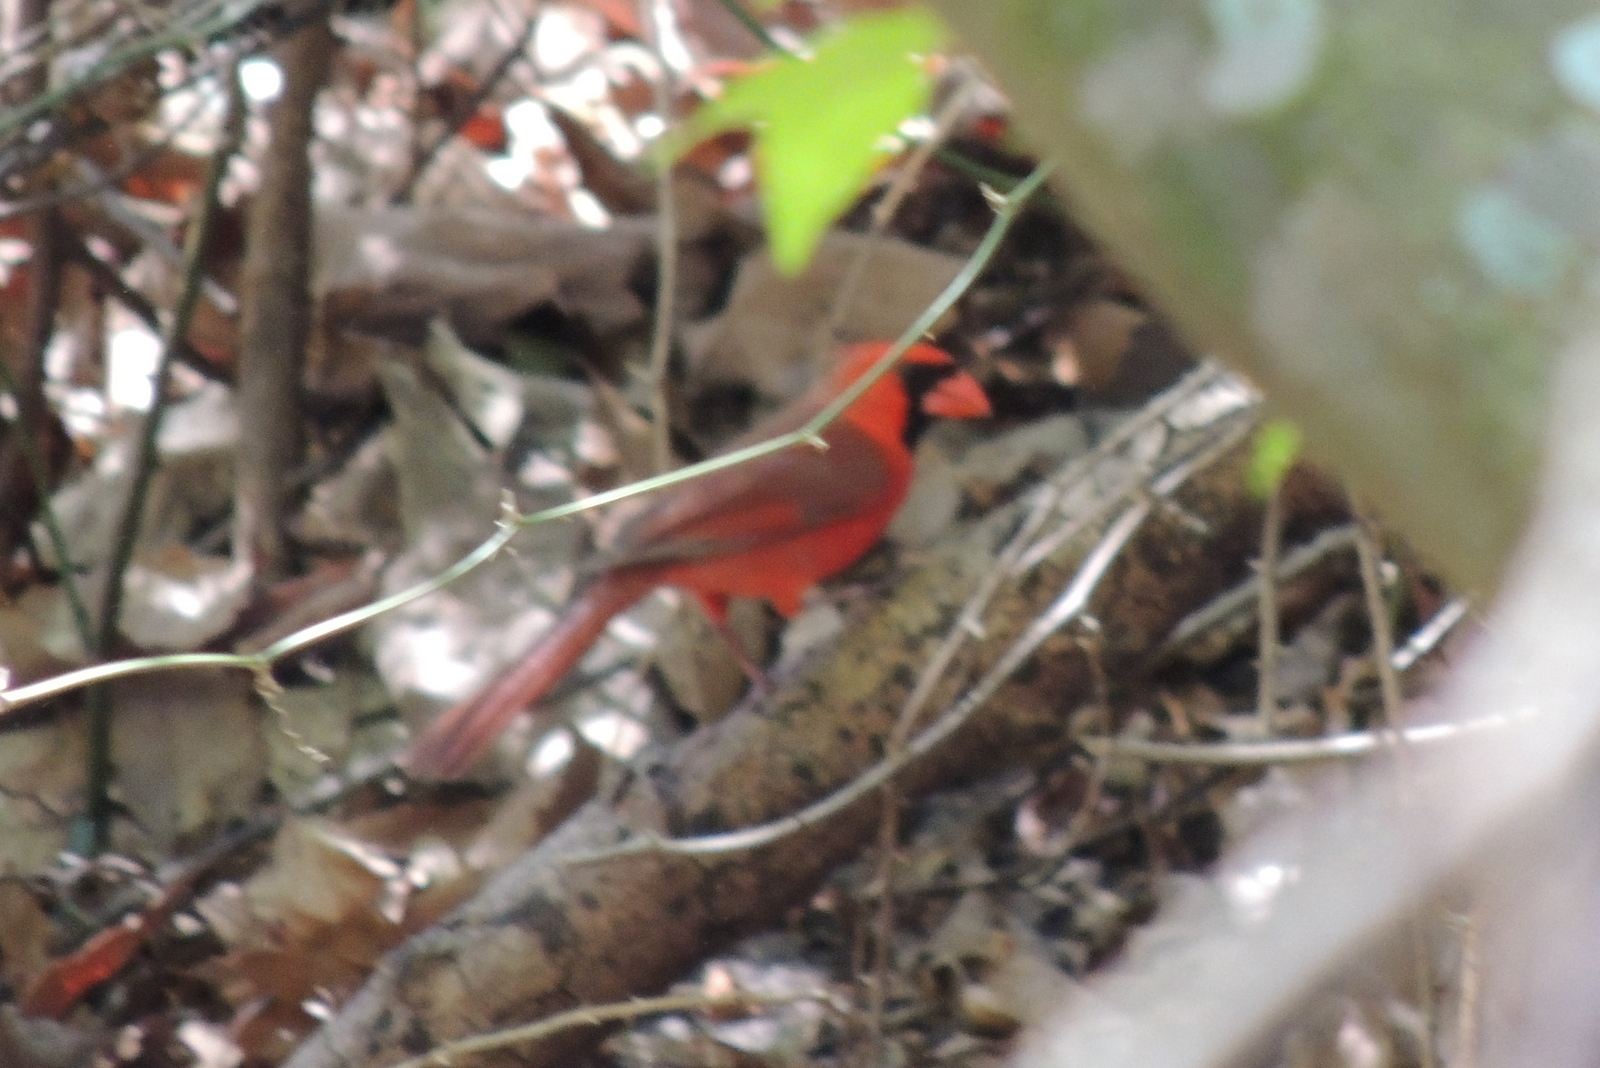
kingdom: Animalia
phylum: Chordata
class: Aves
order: Passeriformes
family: Cardinalidae
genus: Cardinalis
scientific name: Cardinalis cardinalis
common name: Northern cardinal
